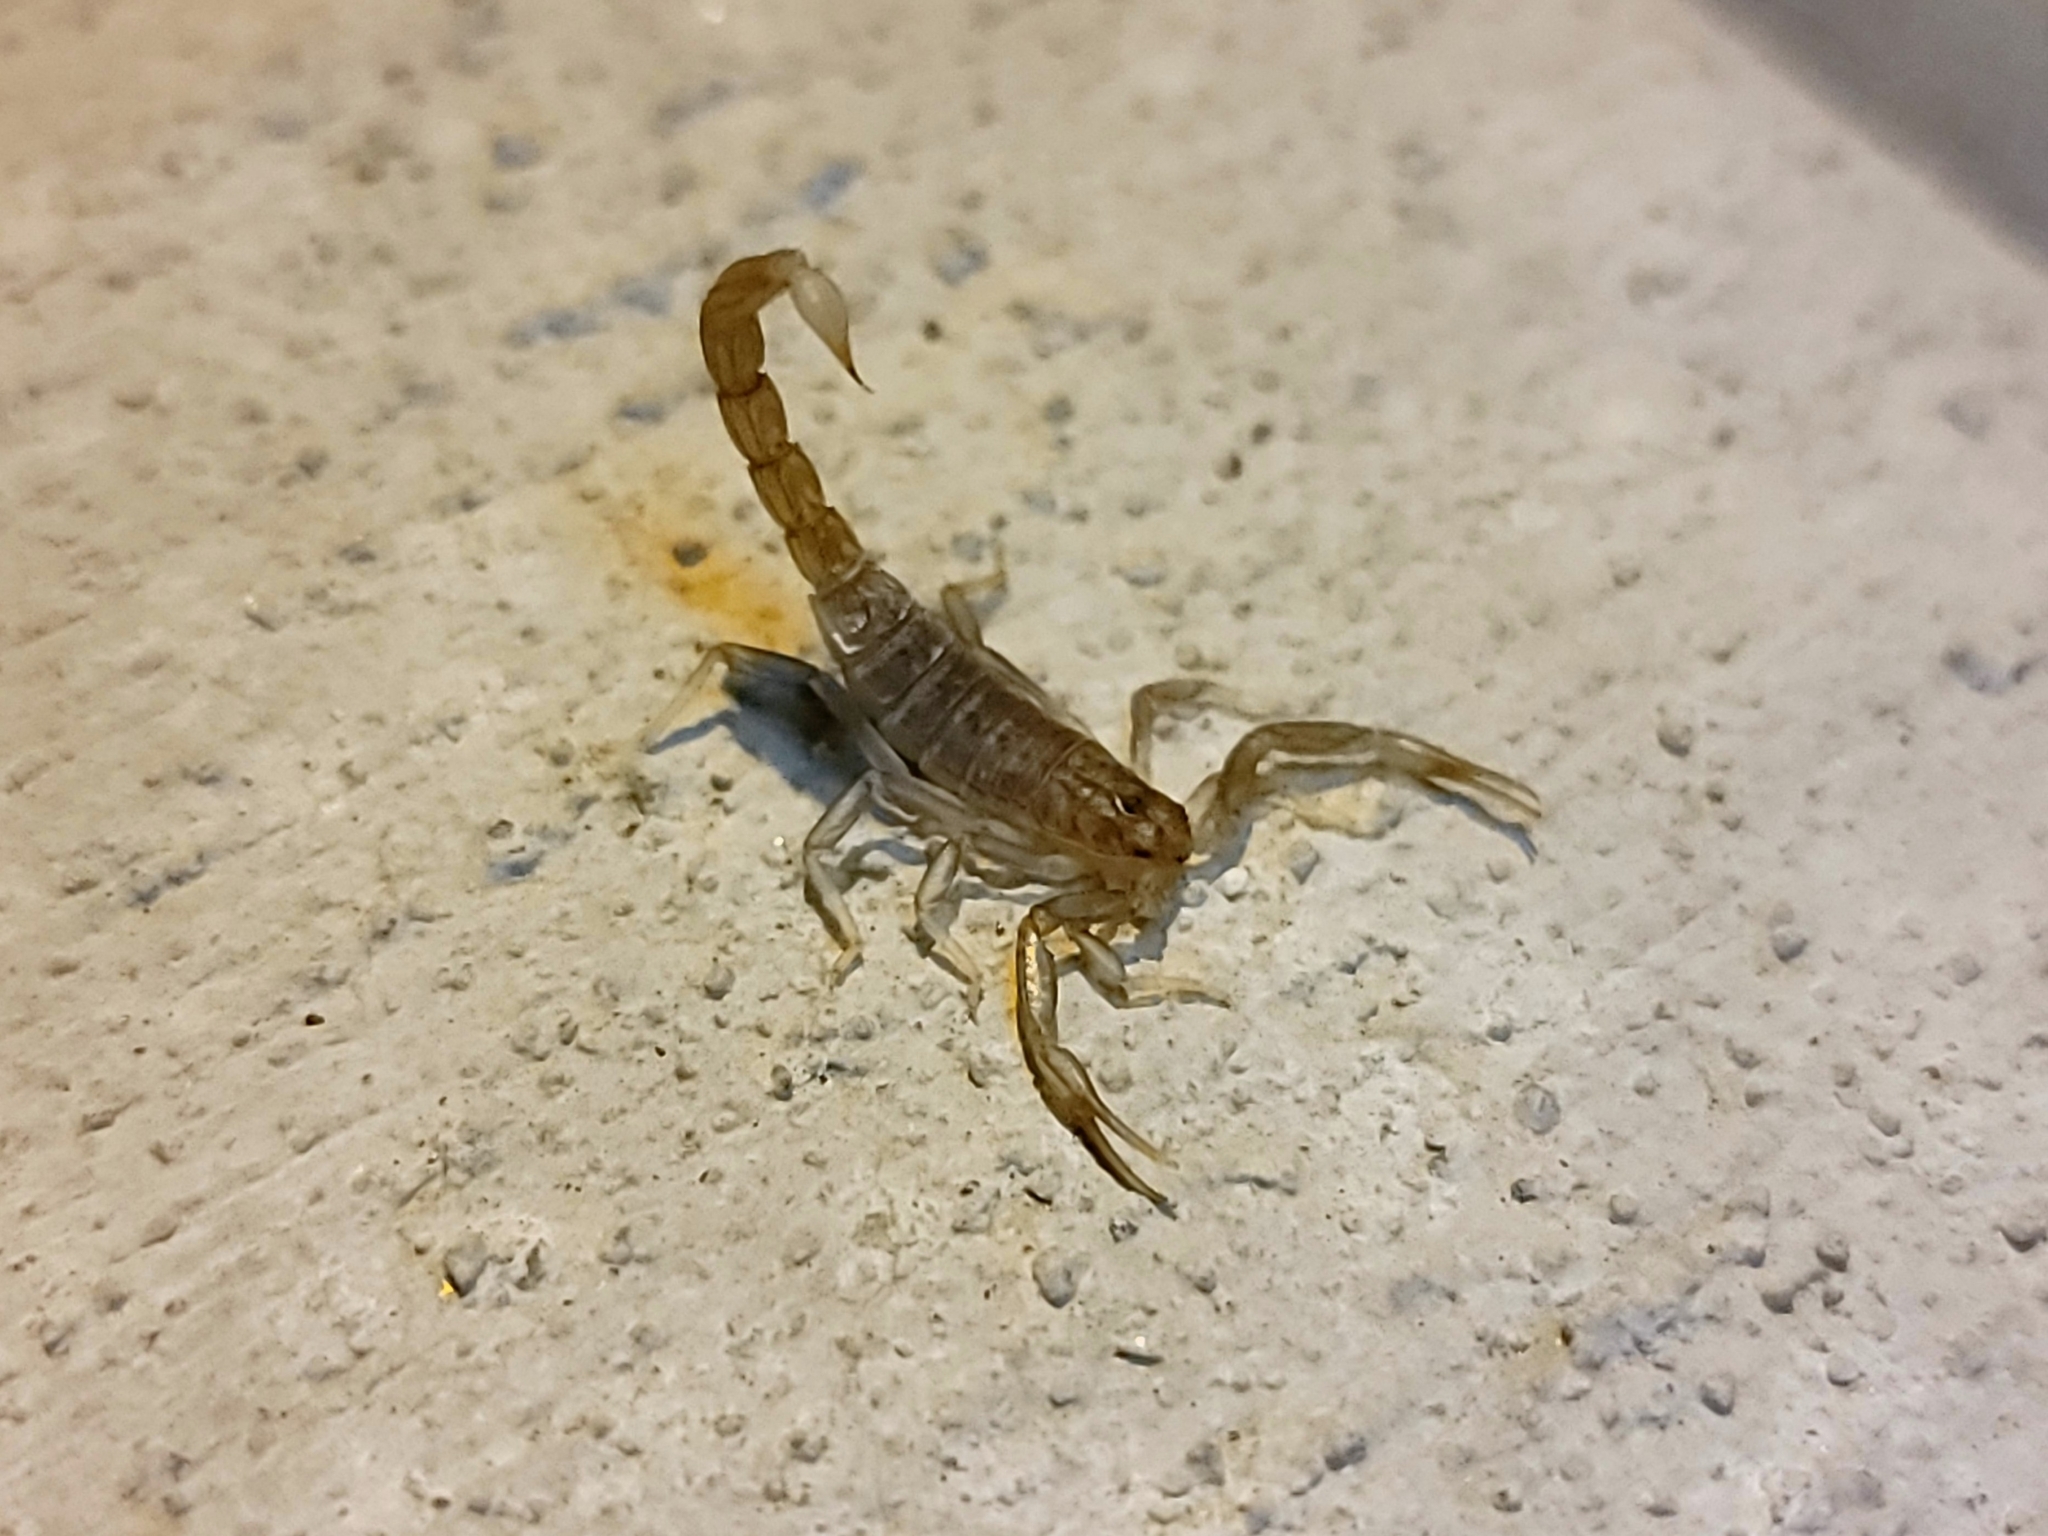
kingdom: Animalia
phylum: Arthropoda
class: Arachnida
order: Scorpiones
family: Vaejovidae
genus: Paravaejovis
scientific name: Paravaejovis puritanus
